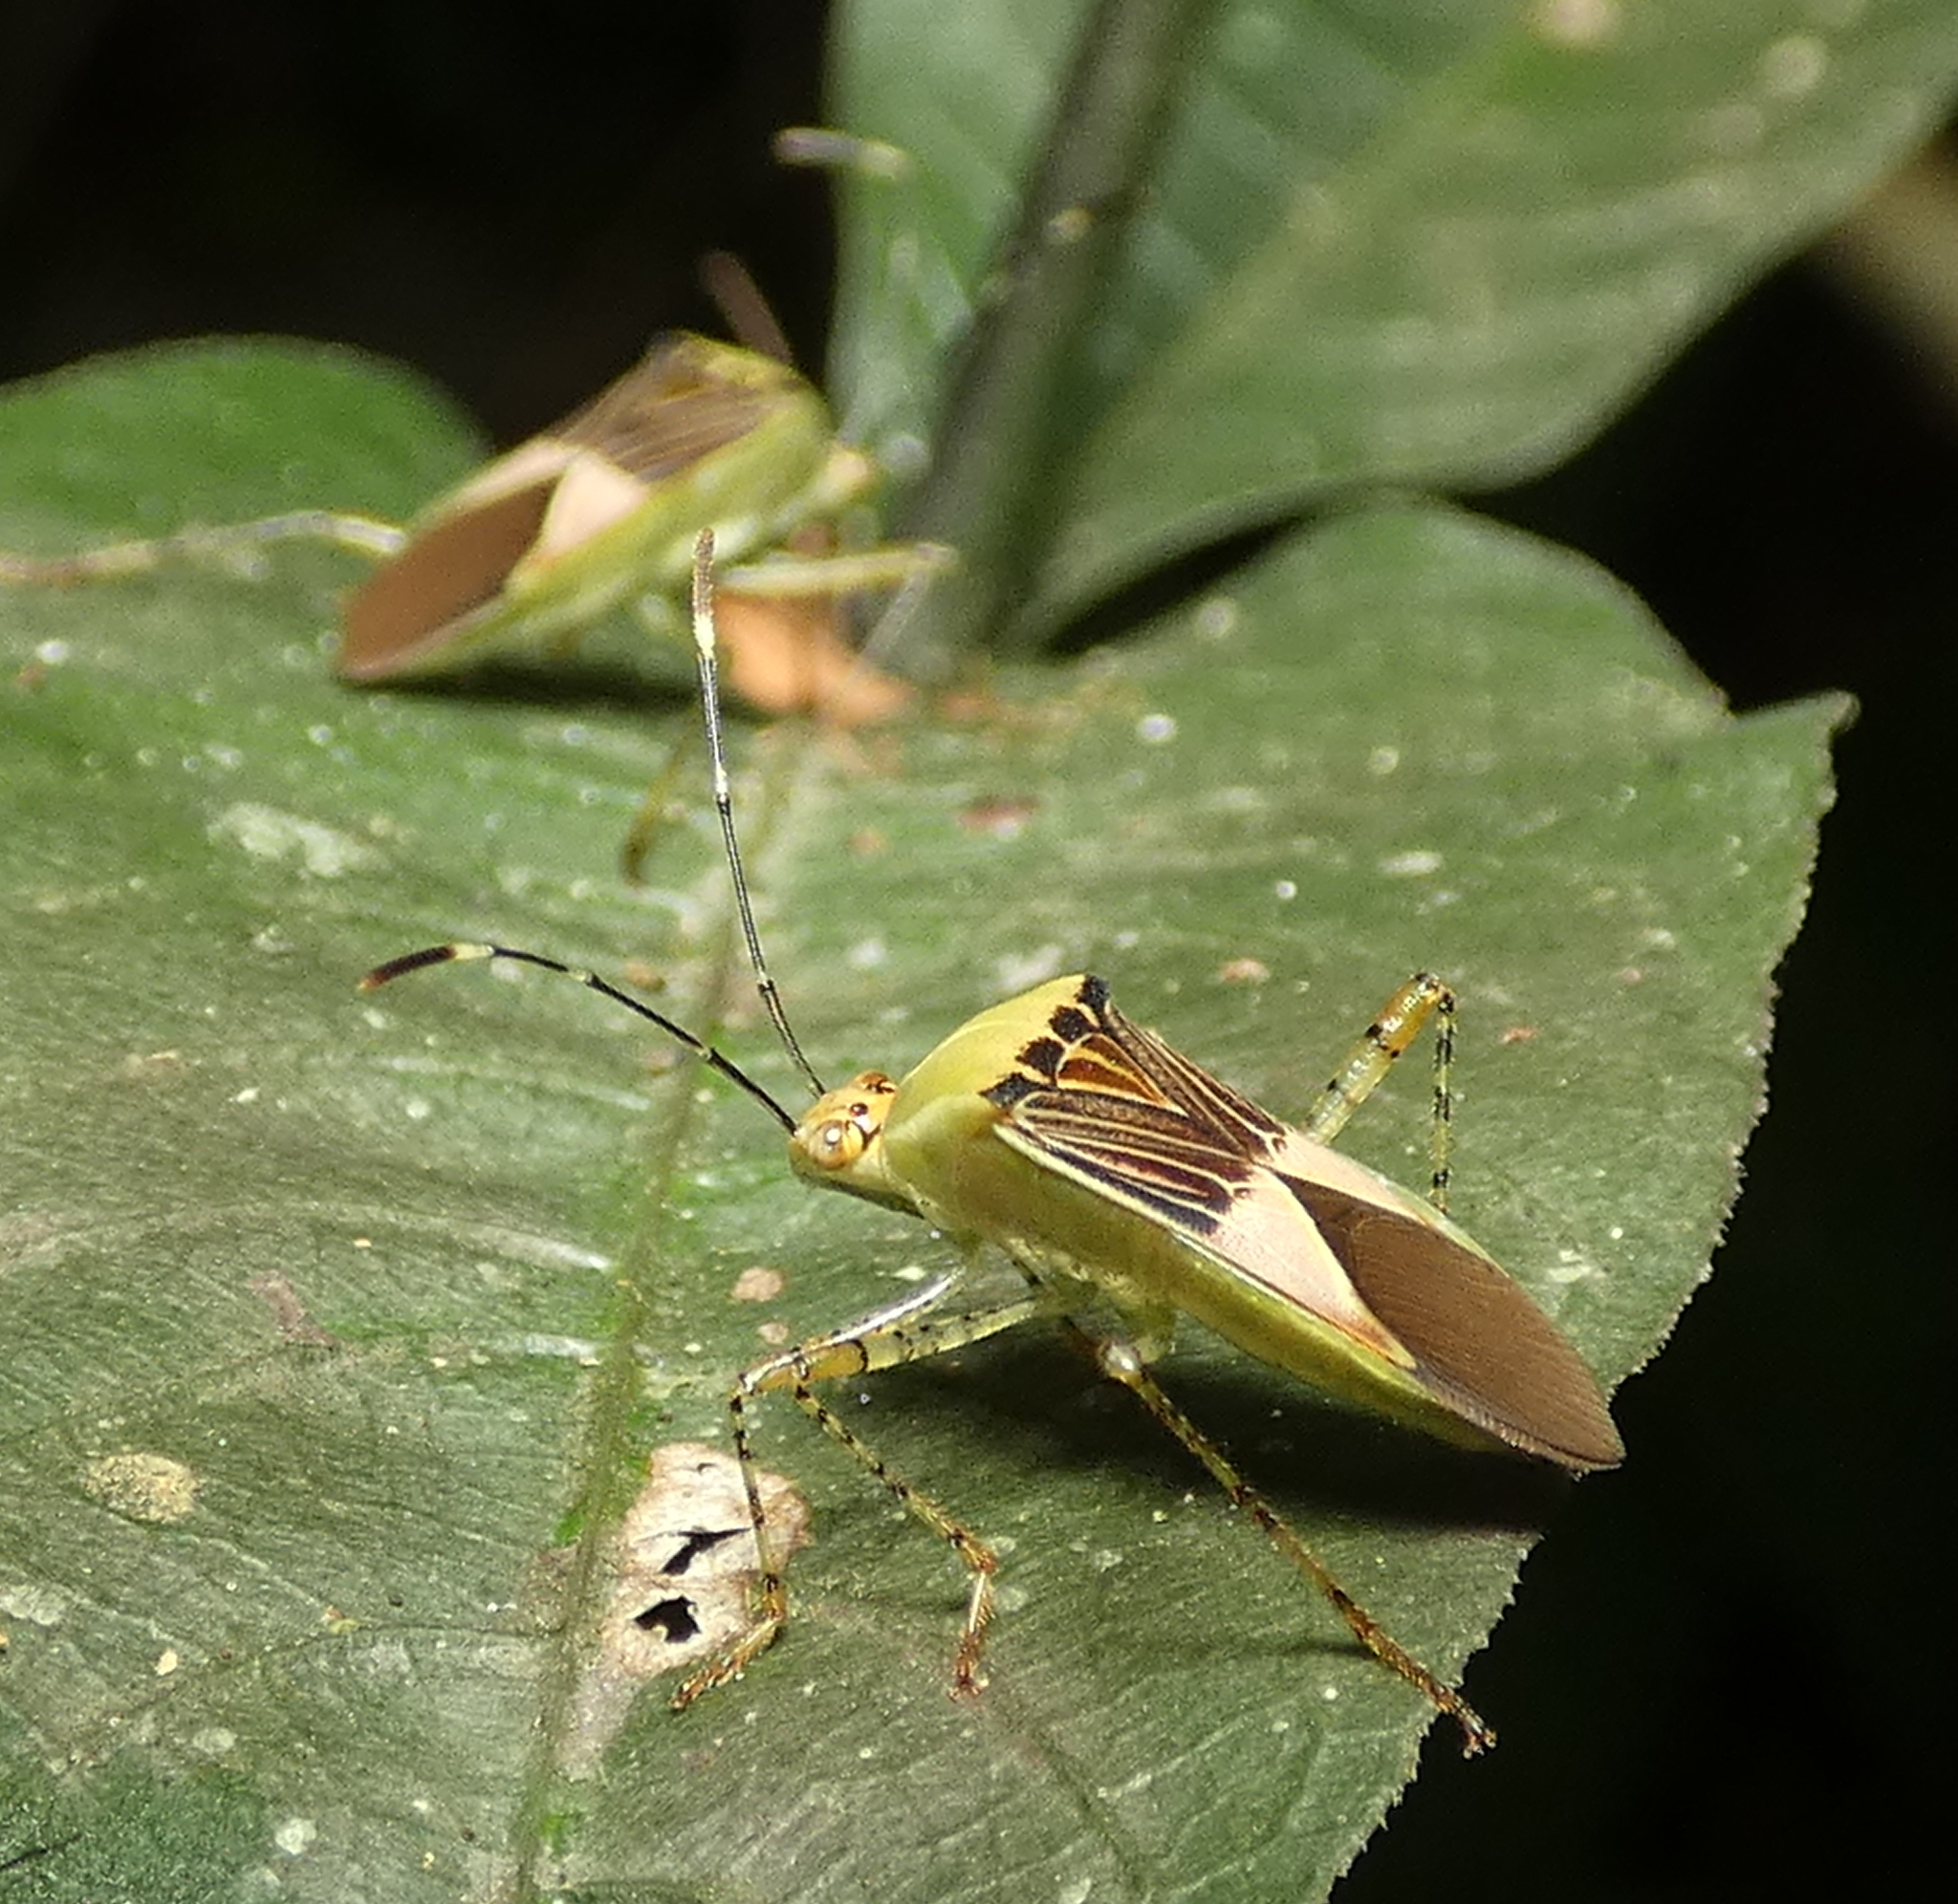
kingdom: Animalia
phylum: Arthropoda
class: Insecta
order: Hemiptera
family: Coreidae
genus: Hypselonotus
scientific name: Hypselonotus fulvus
